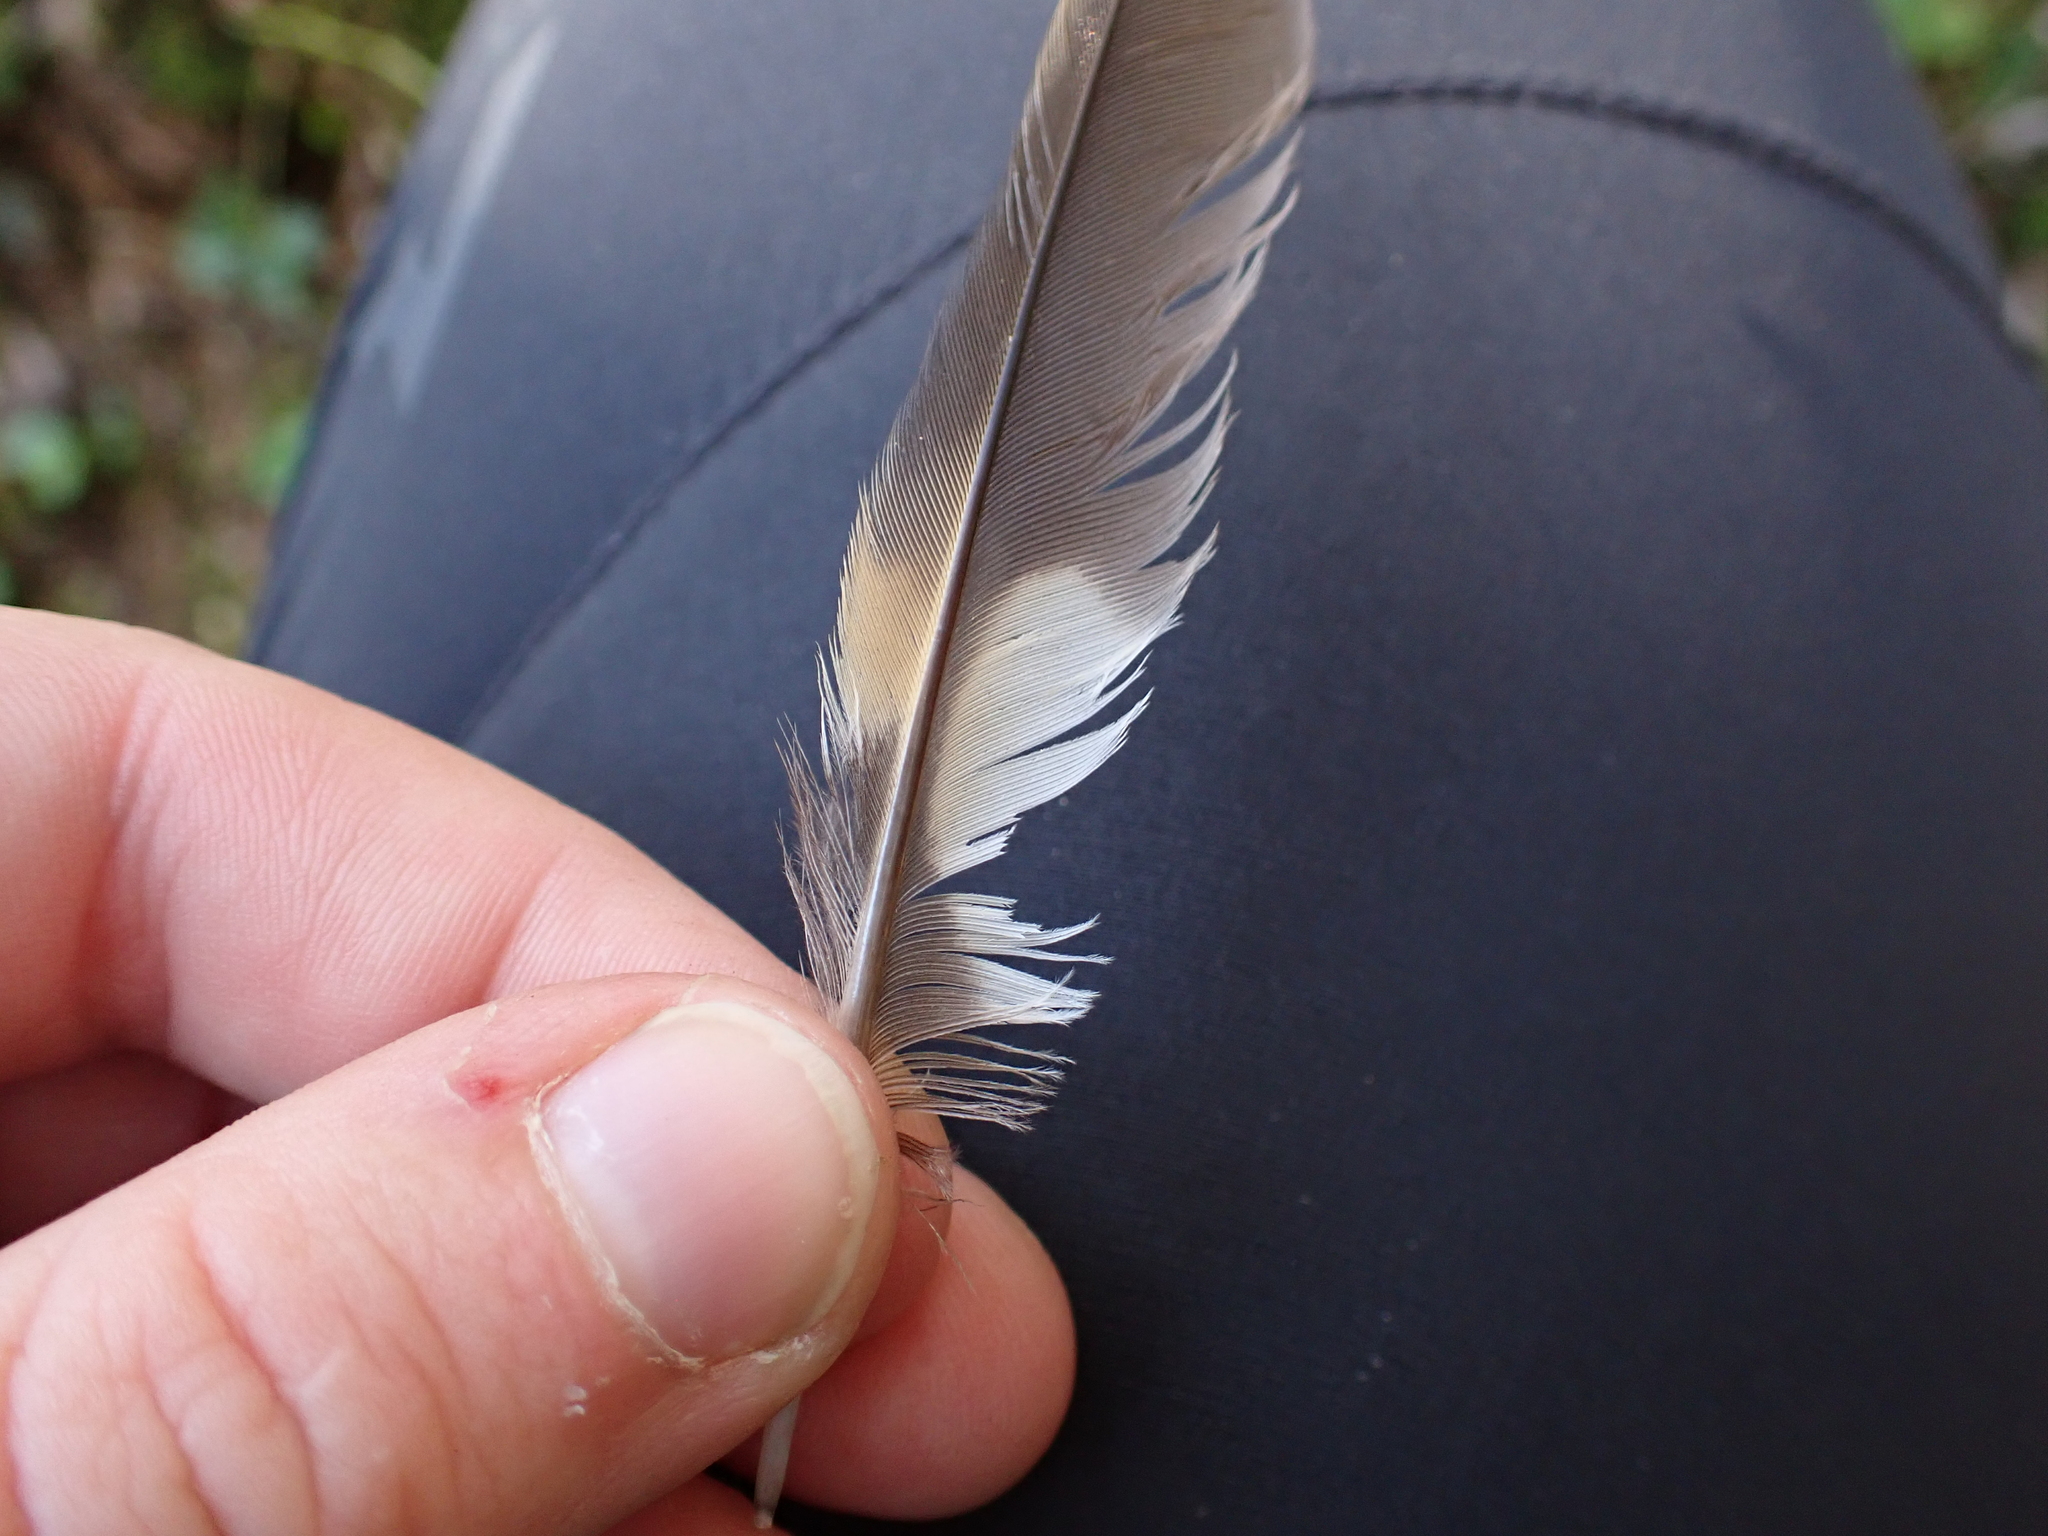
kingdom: Animalia
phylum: Chordata
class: Aves
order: Passeriformes
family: Turdidae
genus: Ixoreus
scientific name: Ixoreus naevius
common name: Varied thrush
